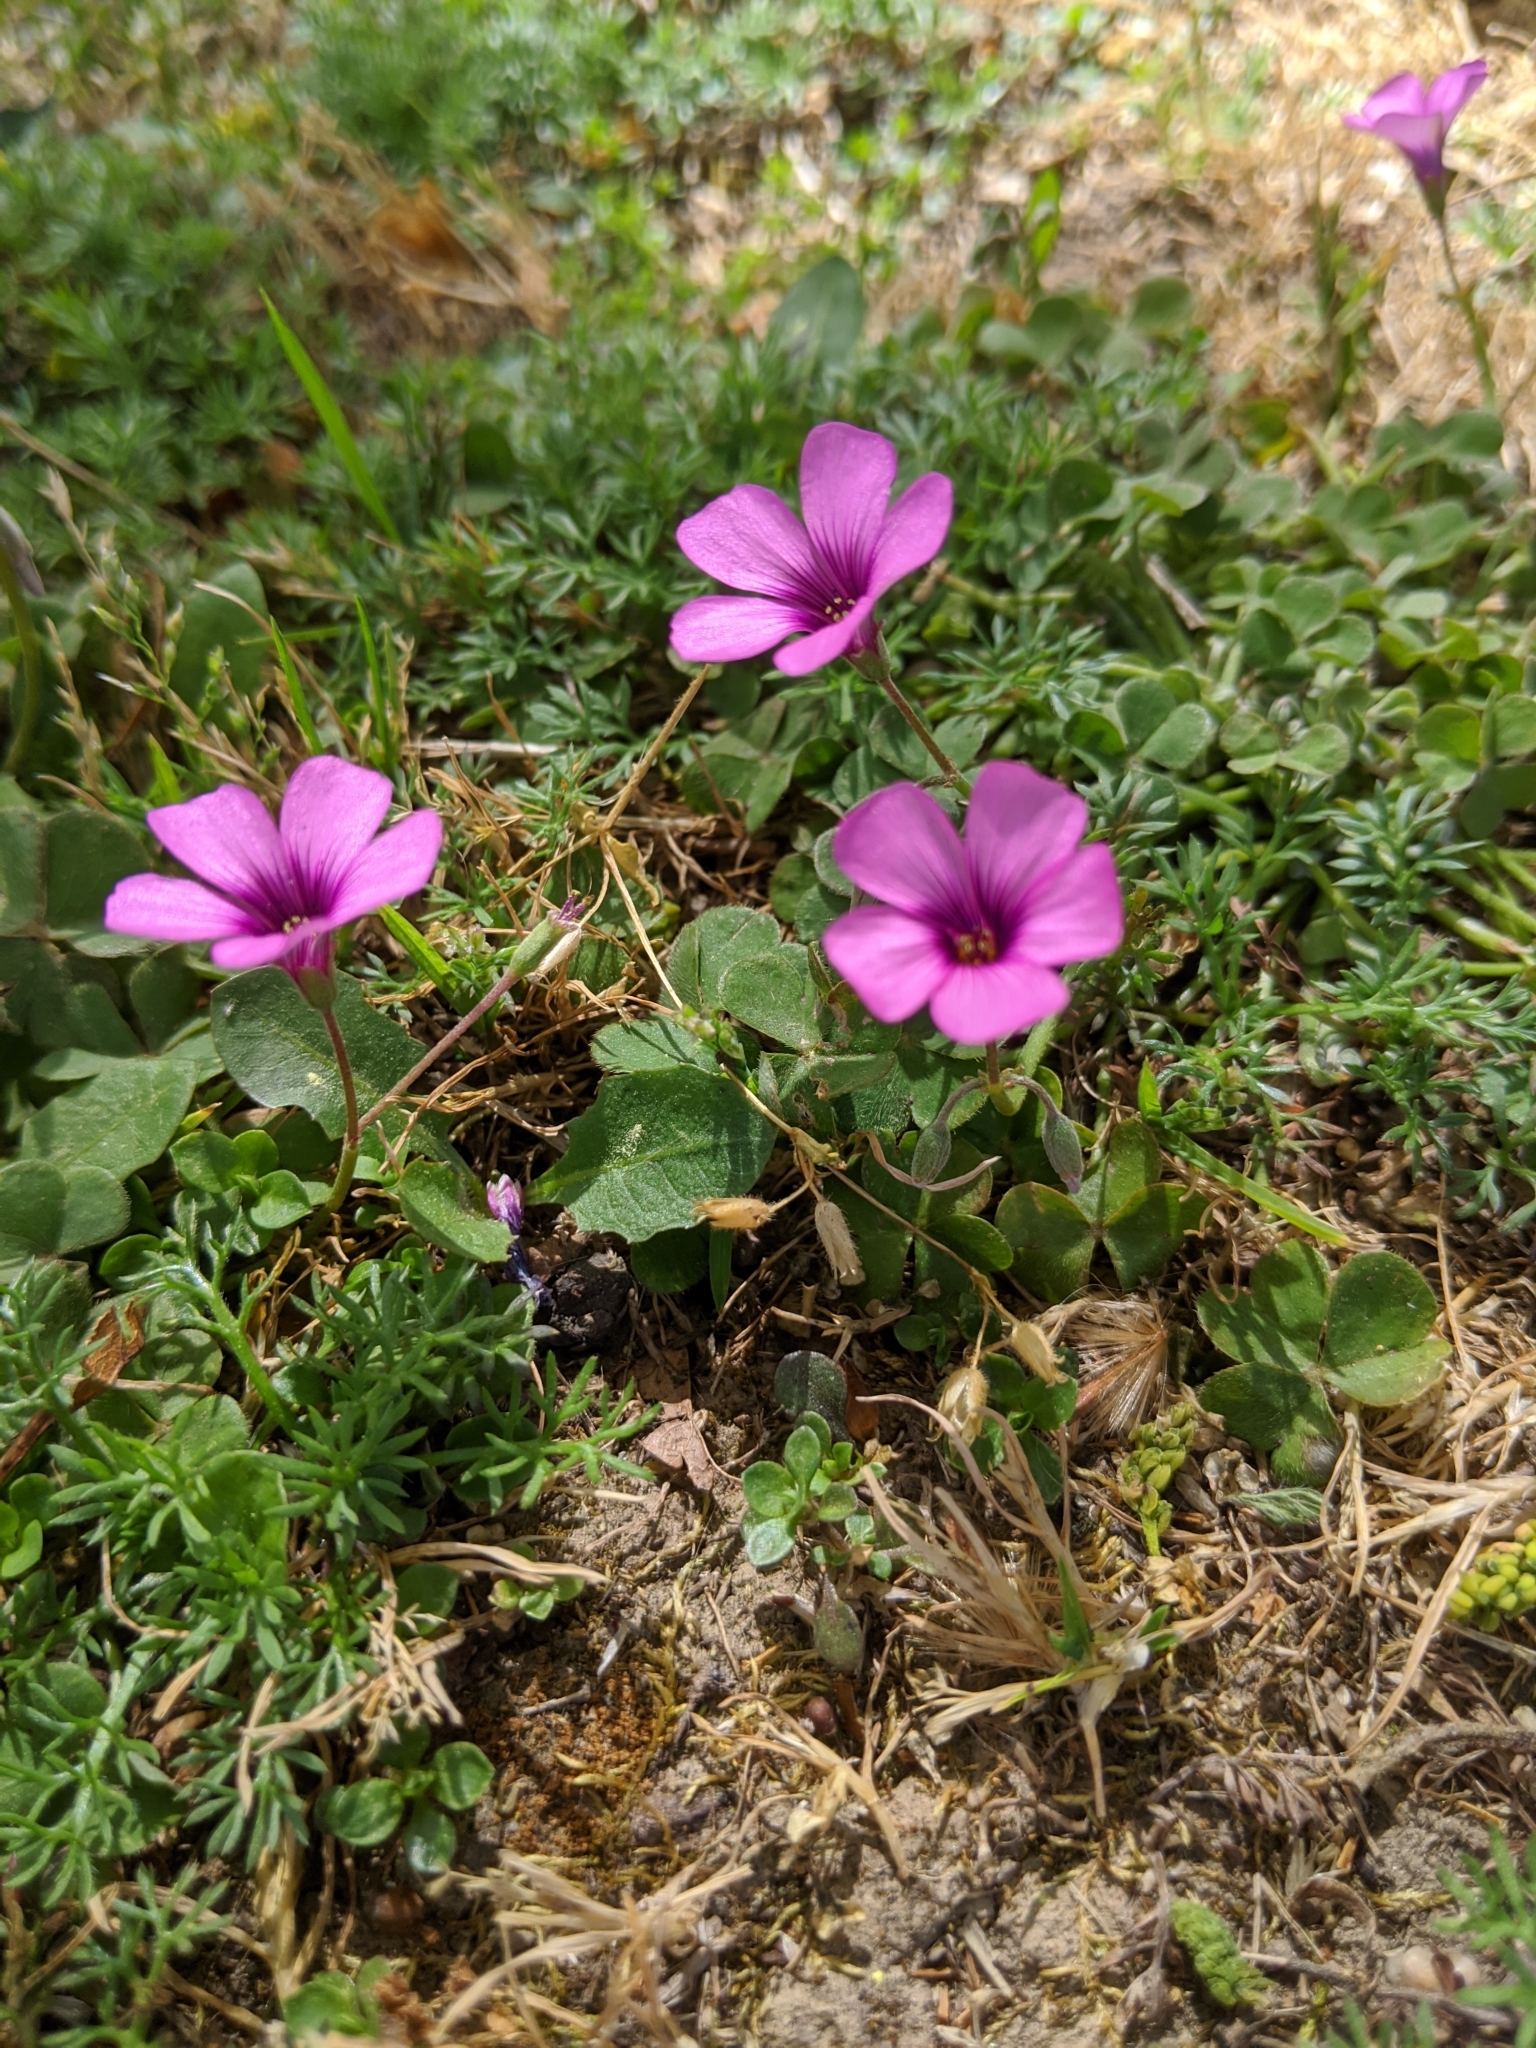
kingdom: Plantae
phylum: Tracheophyta
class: Magnoliopsida
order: Oxalidales
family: Oxalidaceae
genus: Oxalis
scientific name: Oxalis articulata
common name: Pink-sorrel
